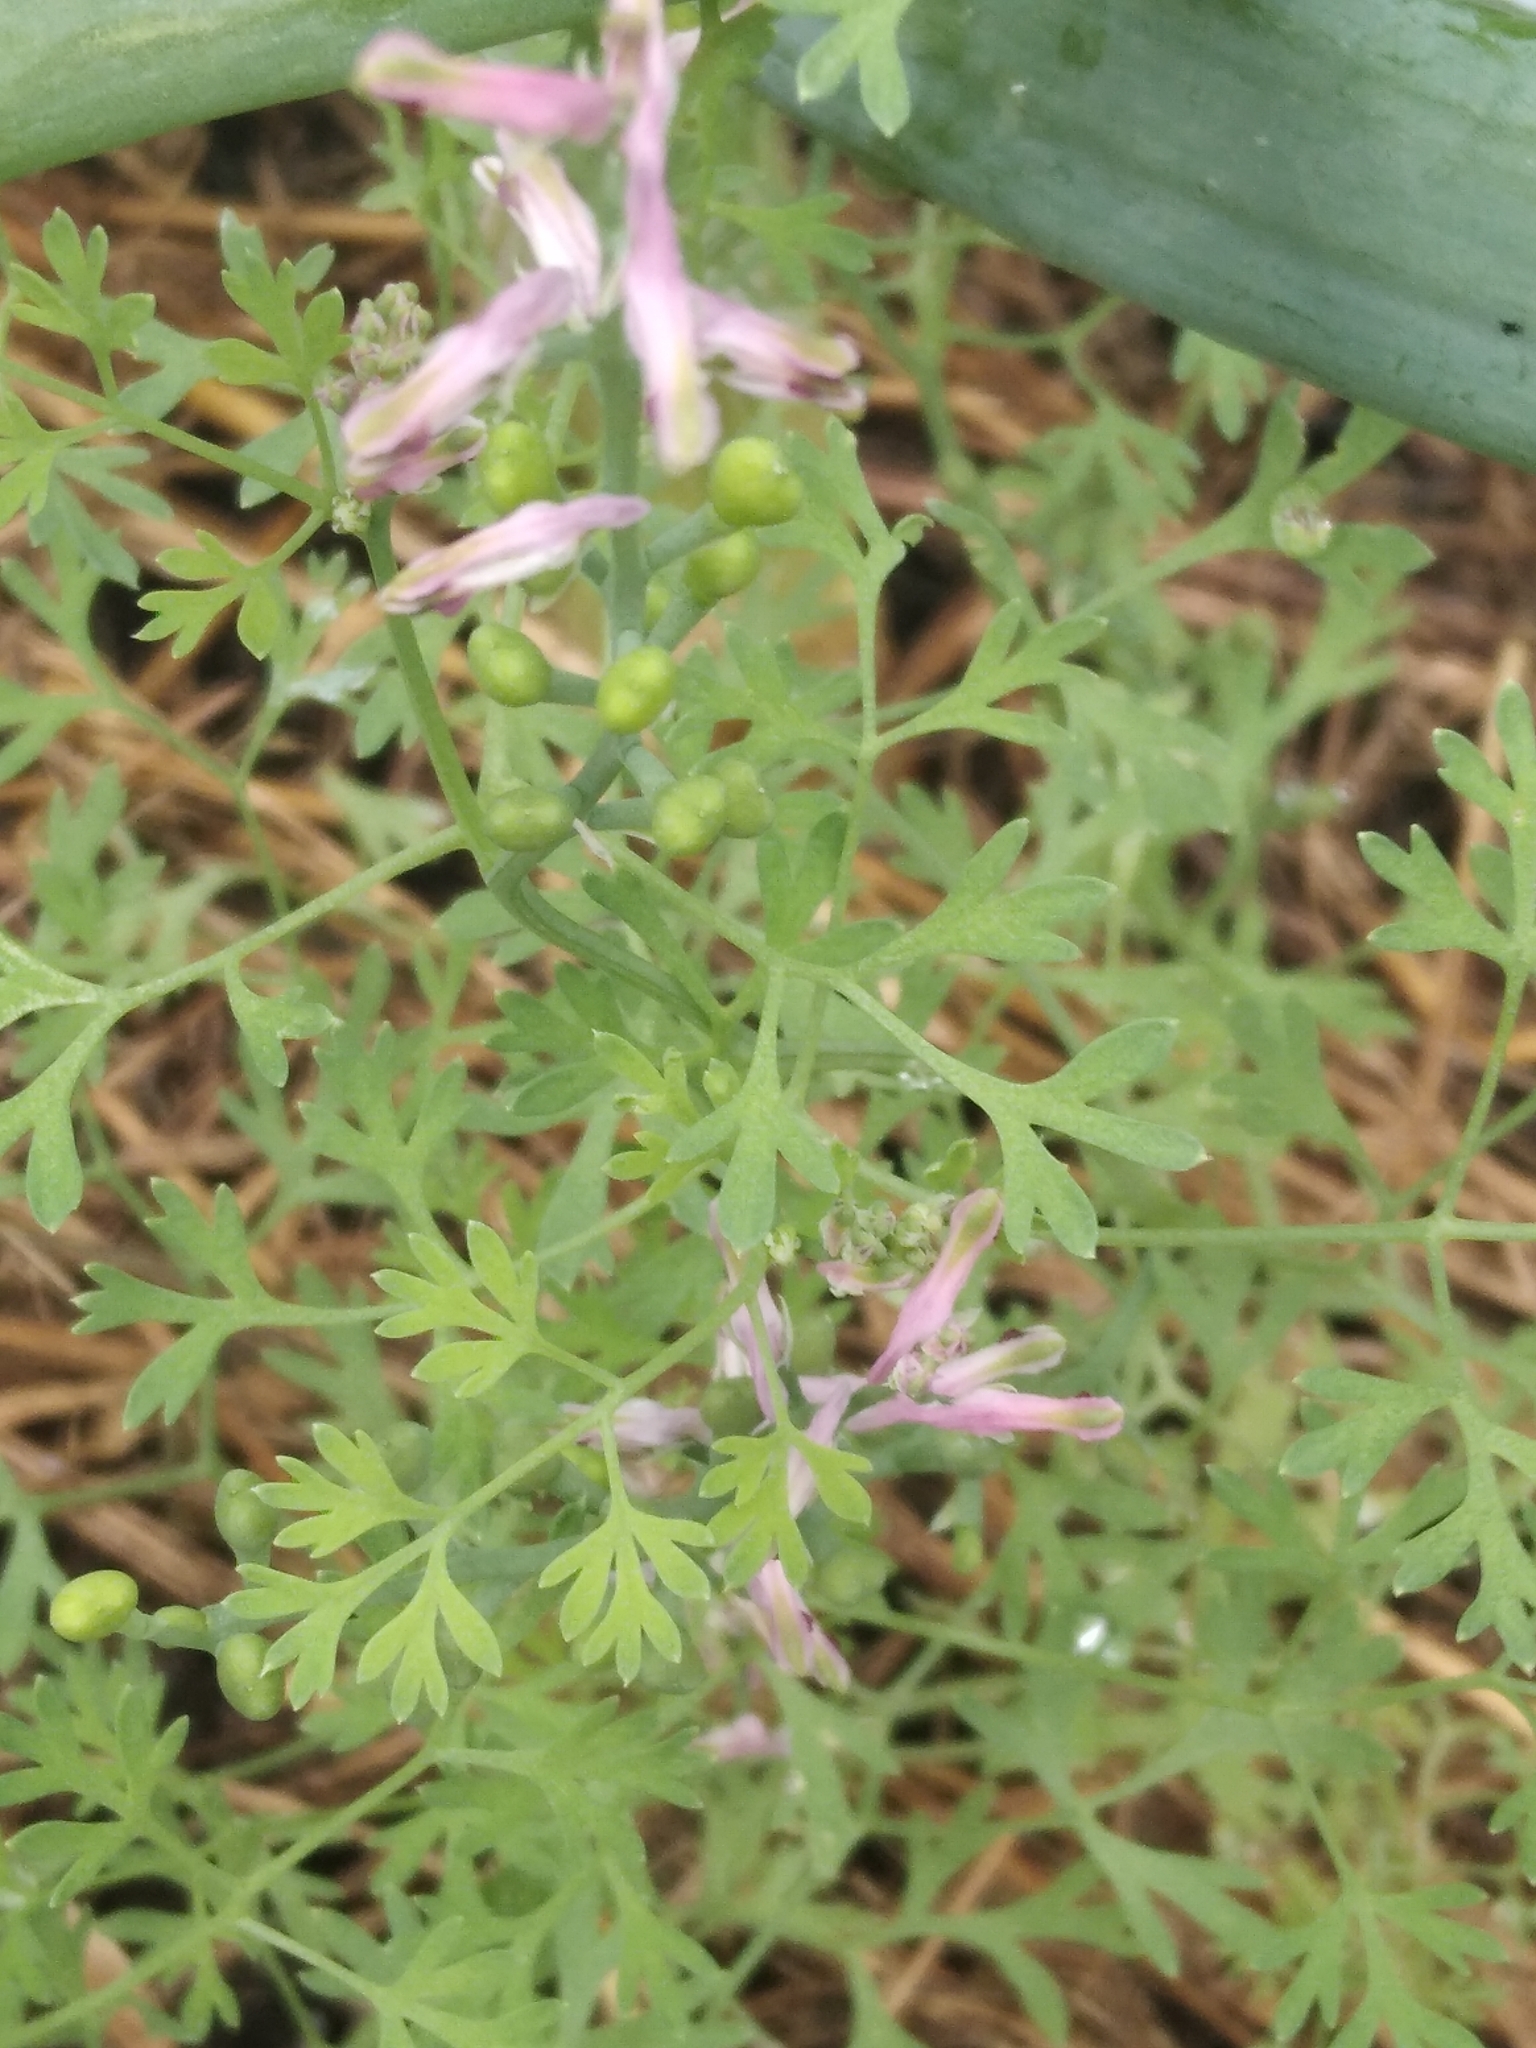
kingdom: Plantae
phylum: Tracheophyta
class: Magnoliopsida
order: Ranunculales
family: Papaveraceae
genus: Fumaria
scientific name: Fumaria officinalis
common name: Common fumitory
